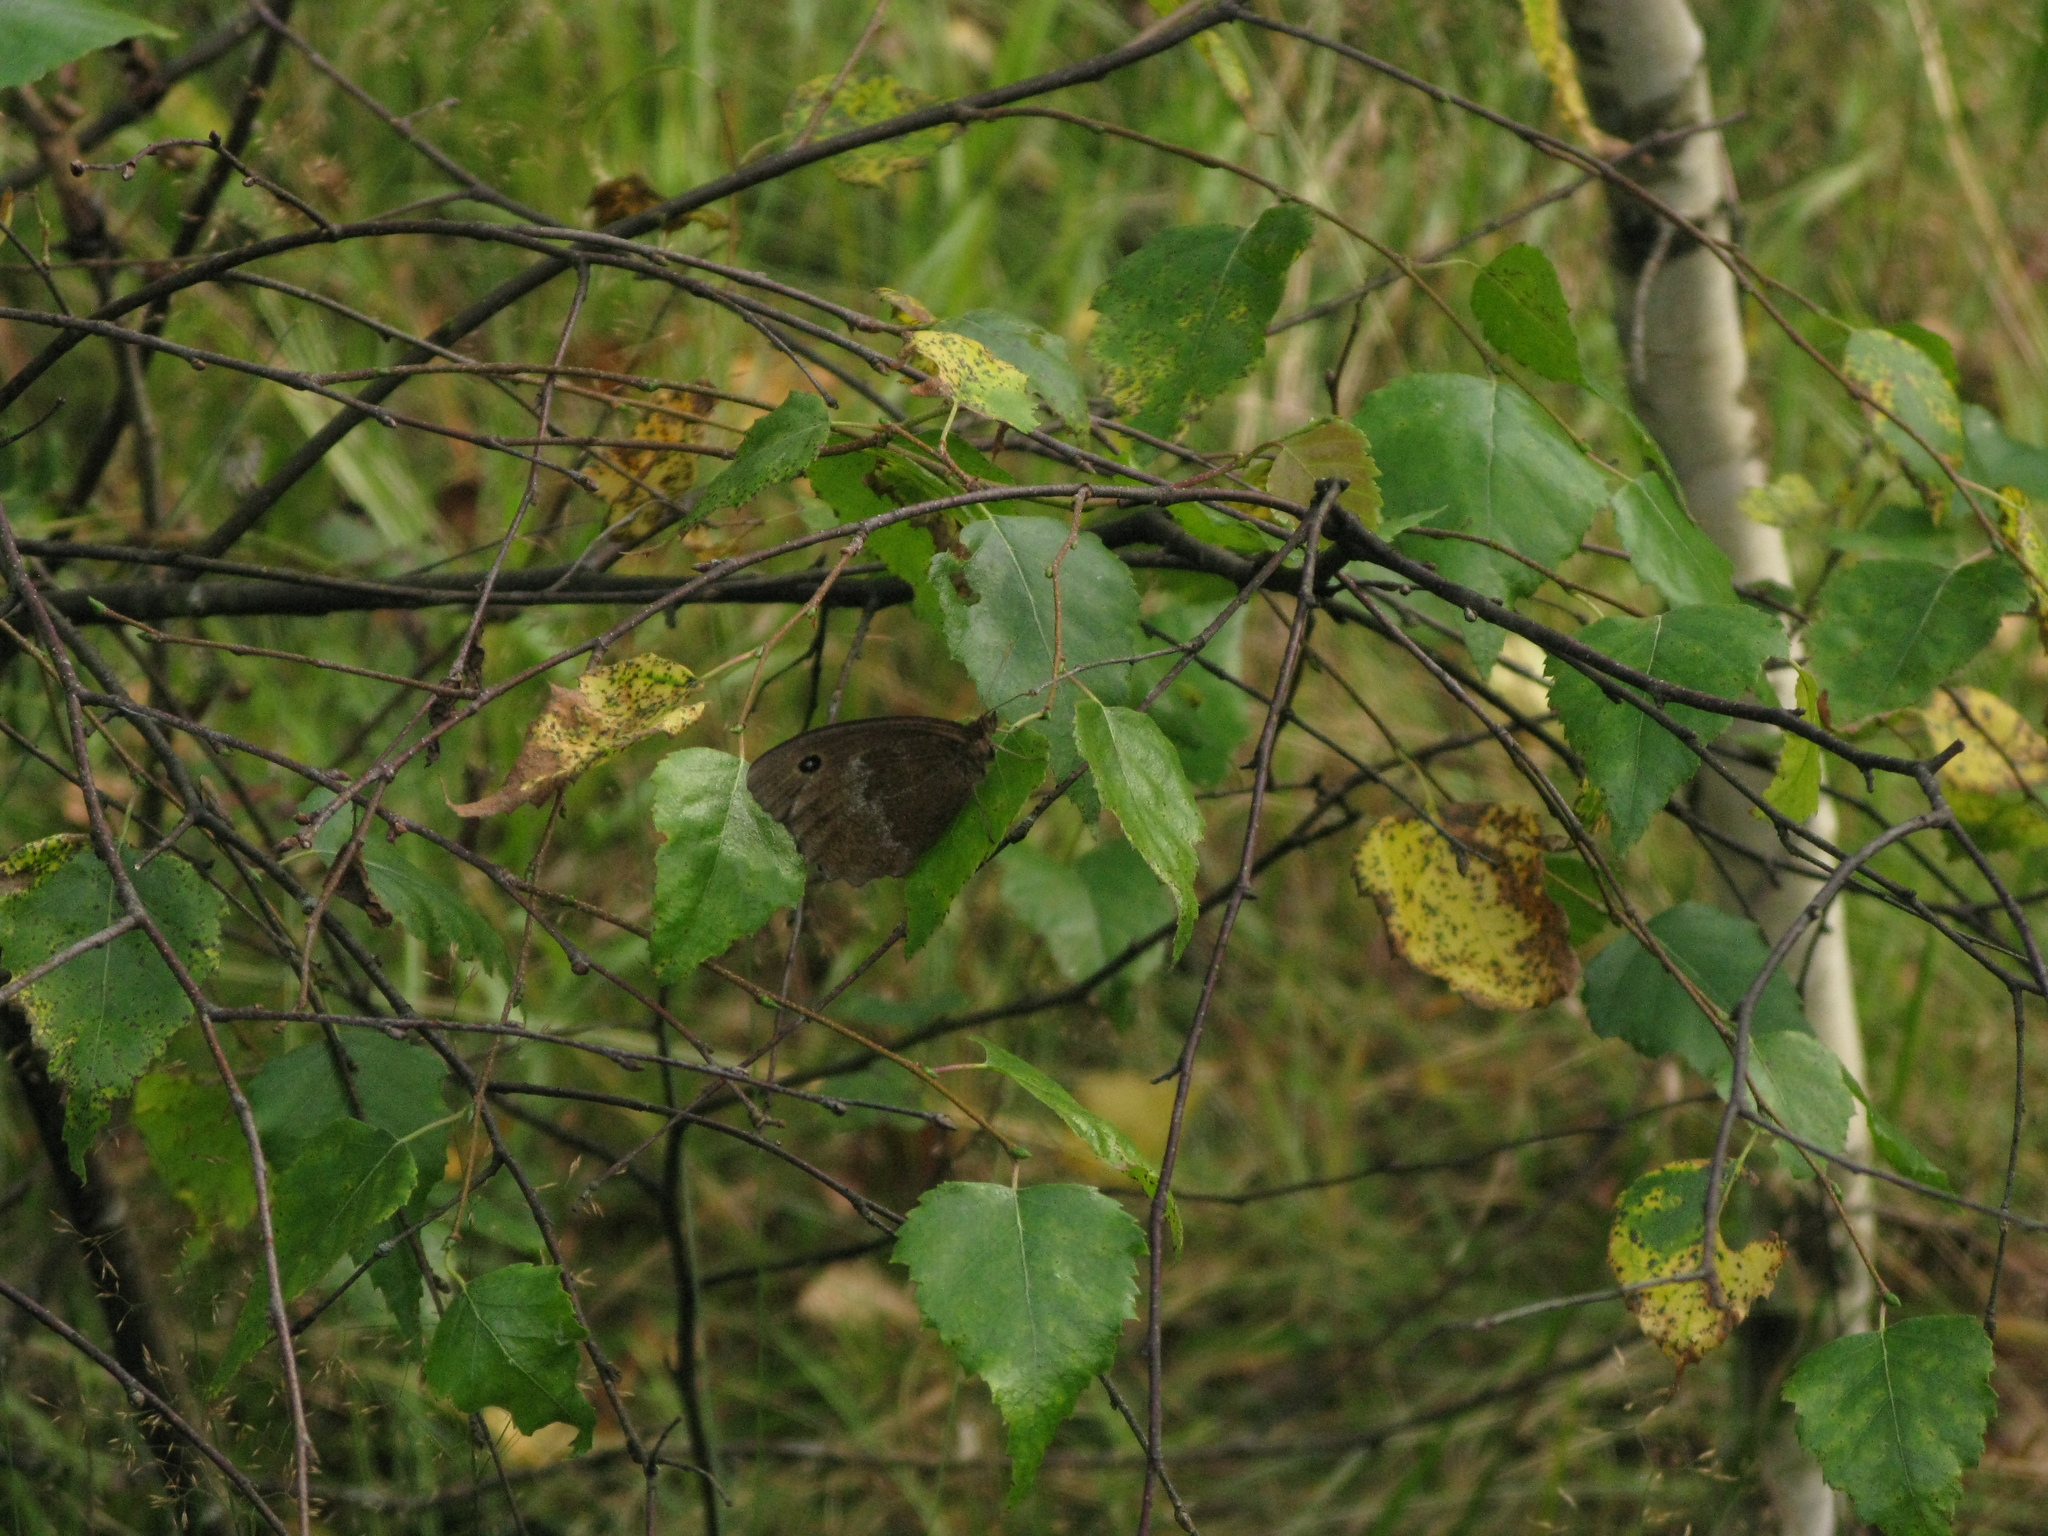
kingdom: Animalia
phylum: Arthropoda
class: Insecta
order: Lepidoptera
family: Nymphalidae
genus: Minois
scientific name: Minois dryas
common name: Dryad
